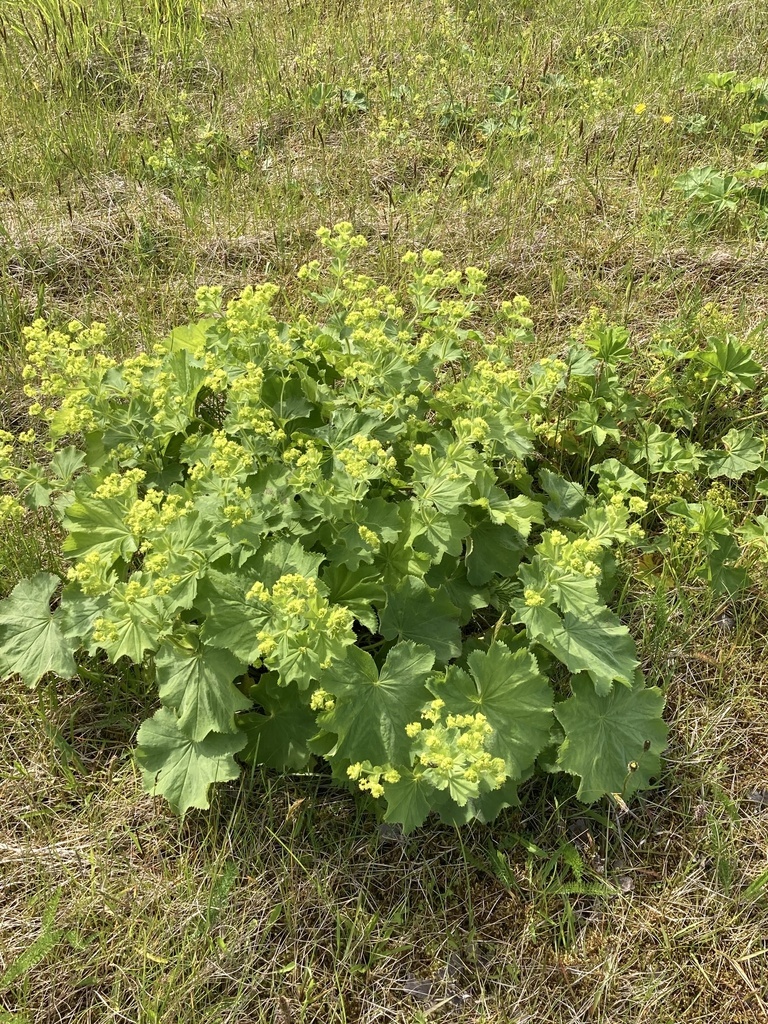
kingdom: Plantae
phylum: Tracheophyta
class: Magnoliopsida
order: Rosales
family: Rosaceae
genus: Alchemilla
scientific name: Alchemilla mollis
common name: Lady's-mantle
